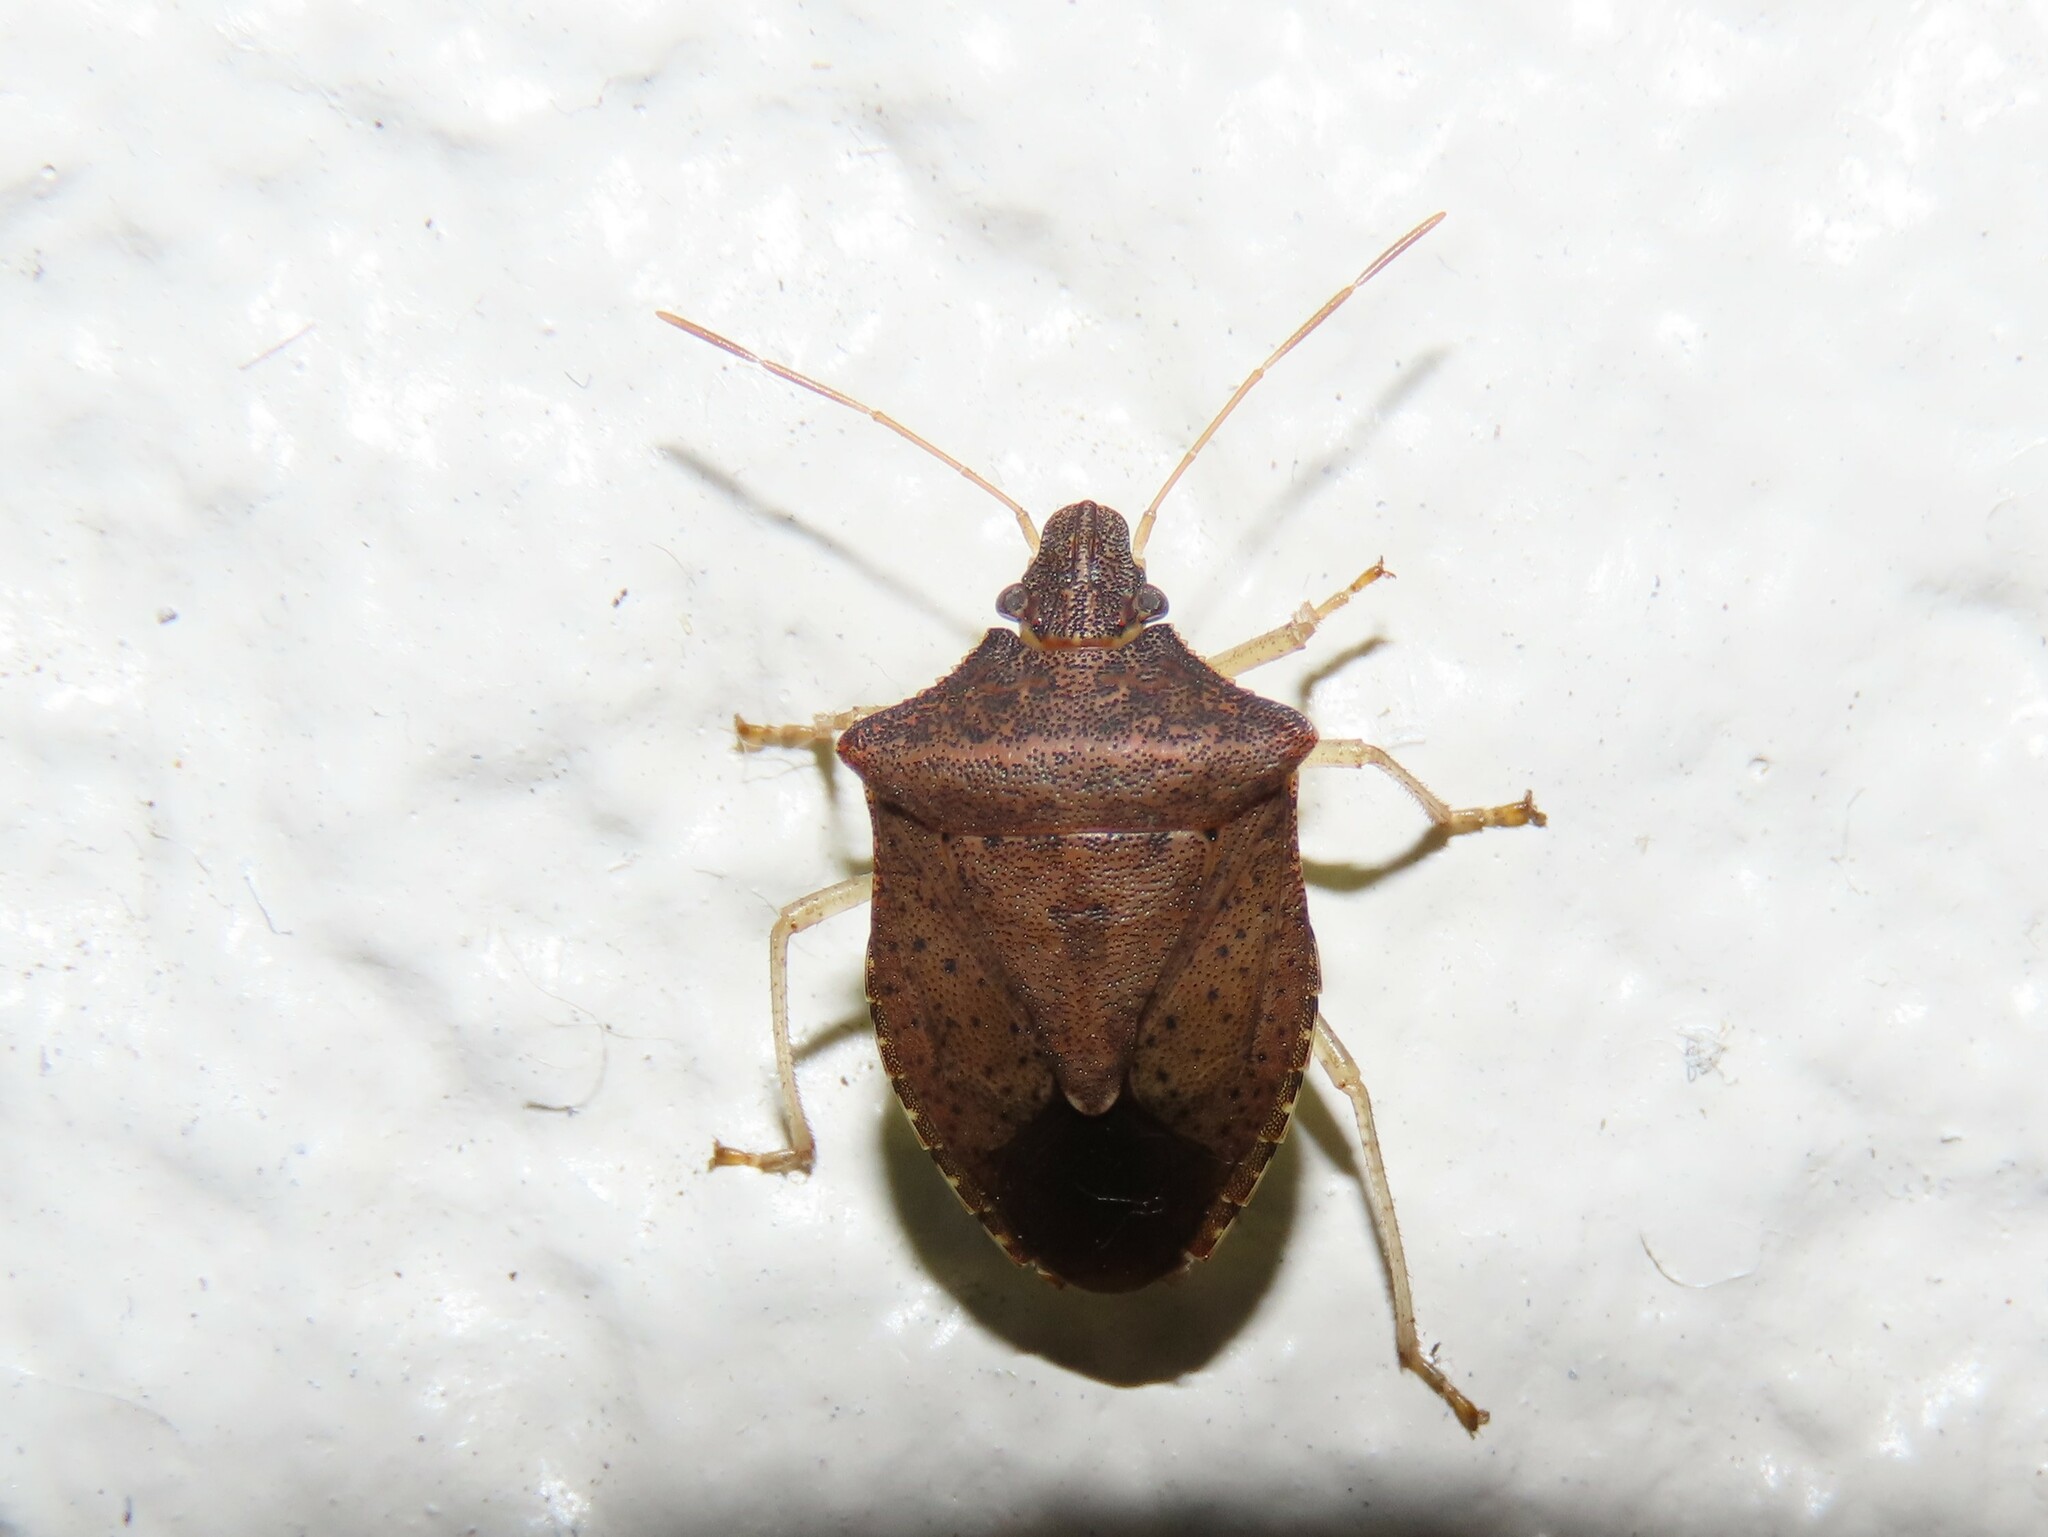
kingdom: Animalia
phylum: Arthropoda
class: Insecta
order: Hemiptera
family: Pentatomidae
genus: Euschistus
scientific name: Euschistus obscurus
